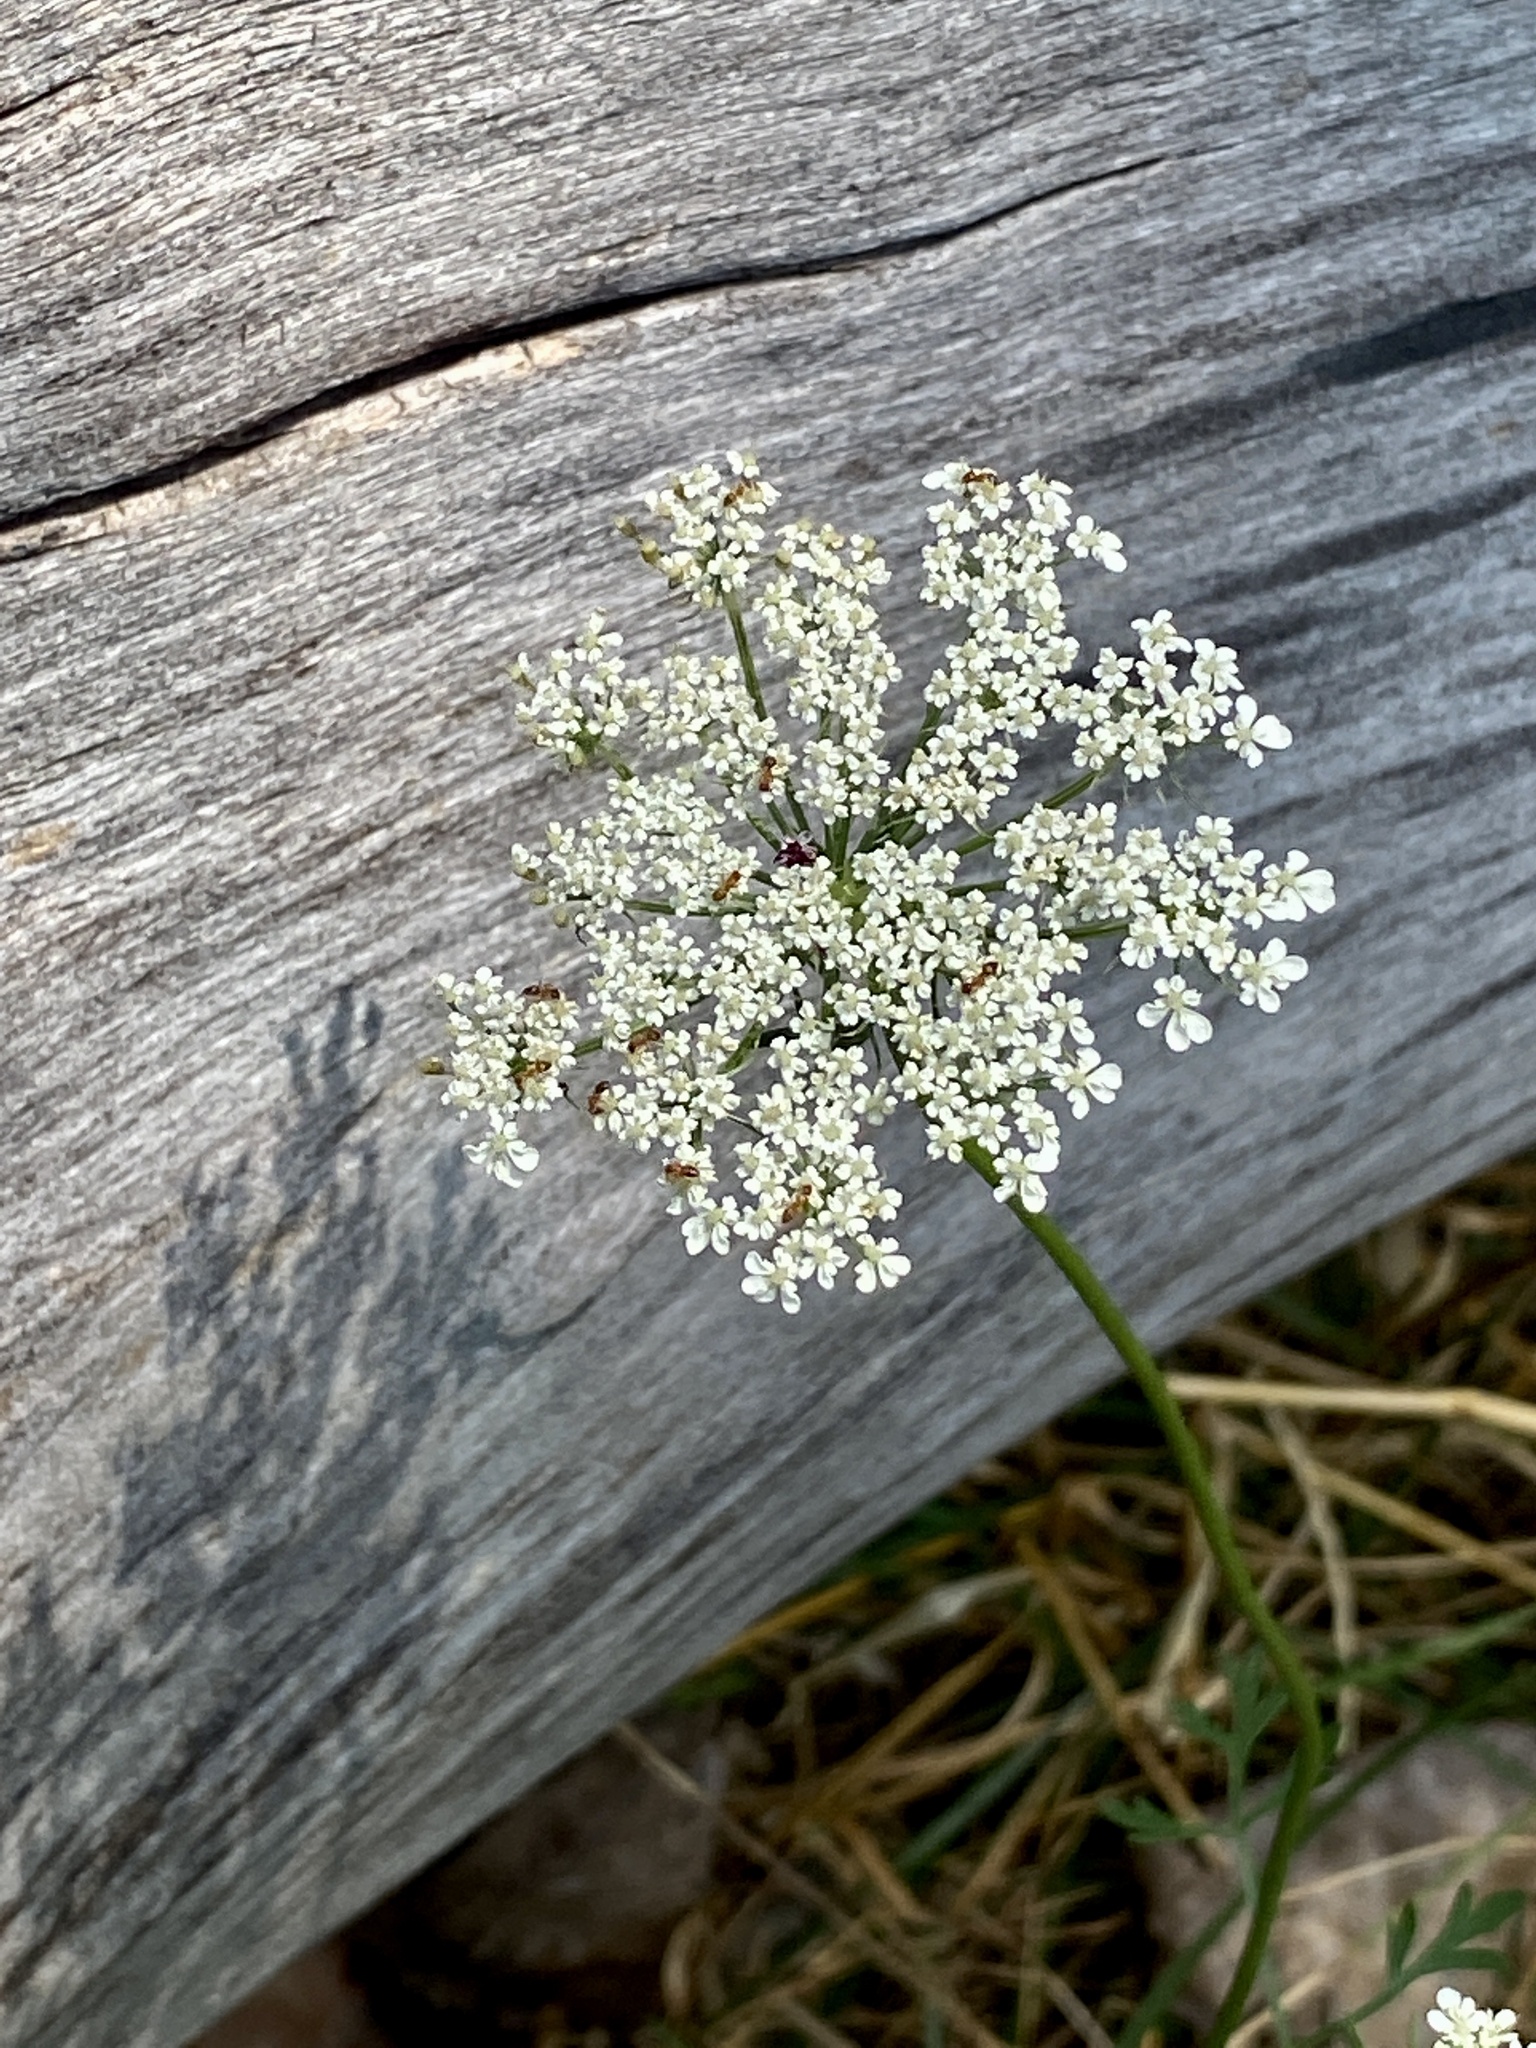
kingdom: Plantae
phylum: Tracheophyta
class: Magnoliopsida
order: Apiales
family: Apiaceae
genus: Daucus
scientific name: Daucus carota
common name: Wild carrot
